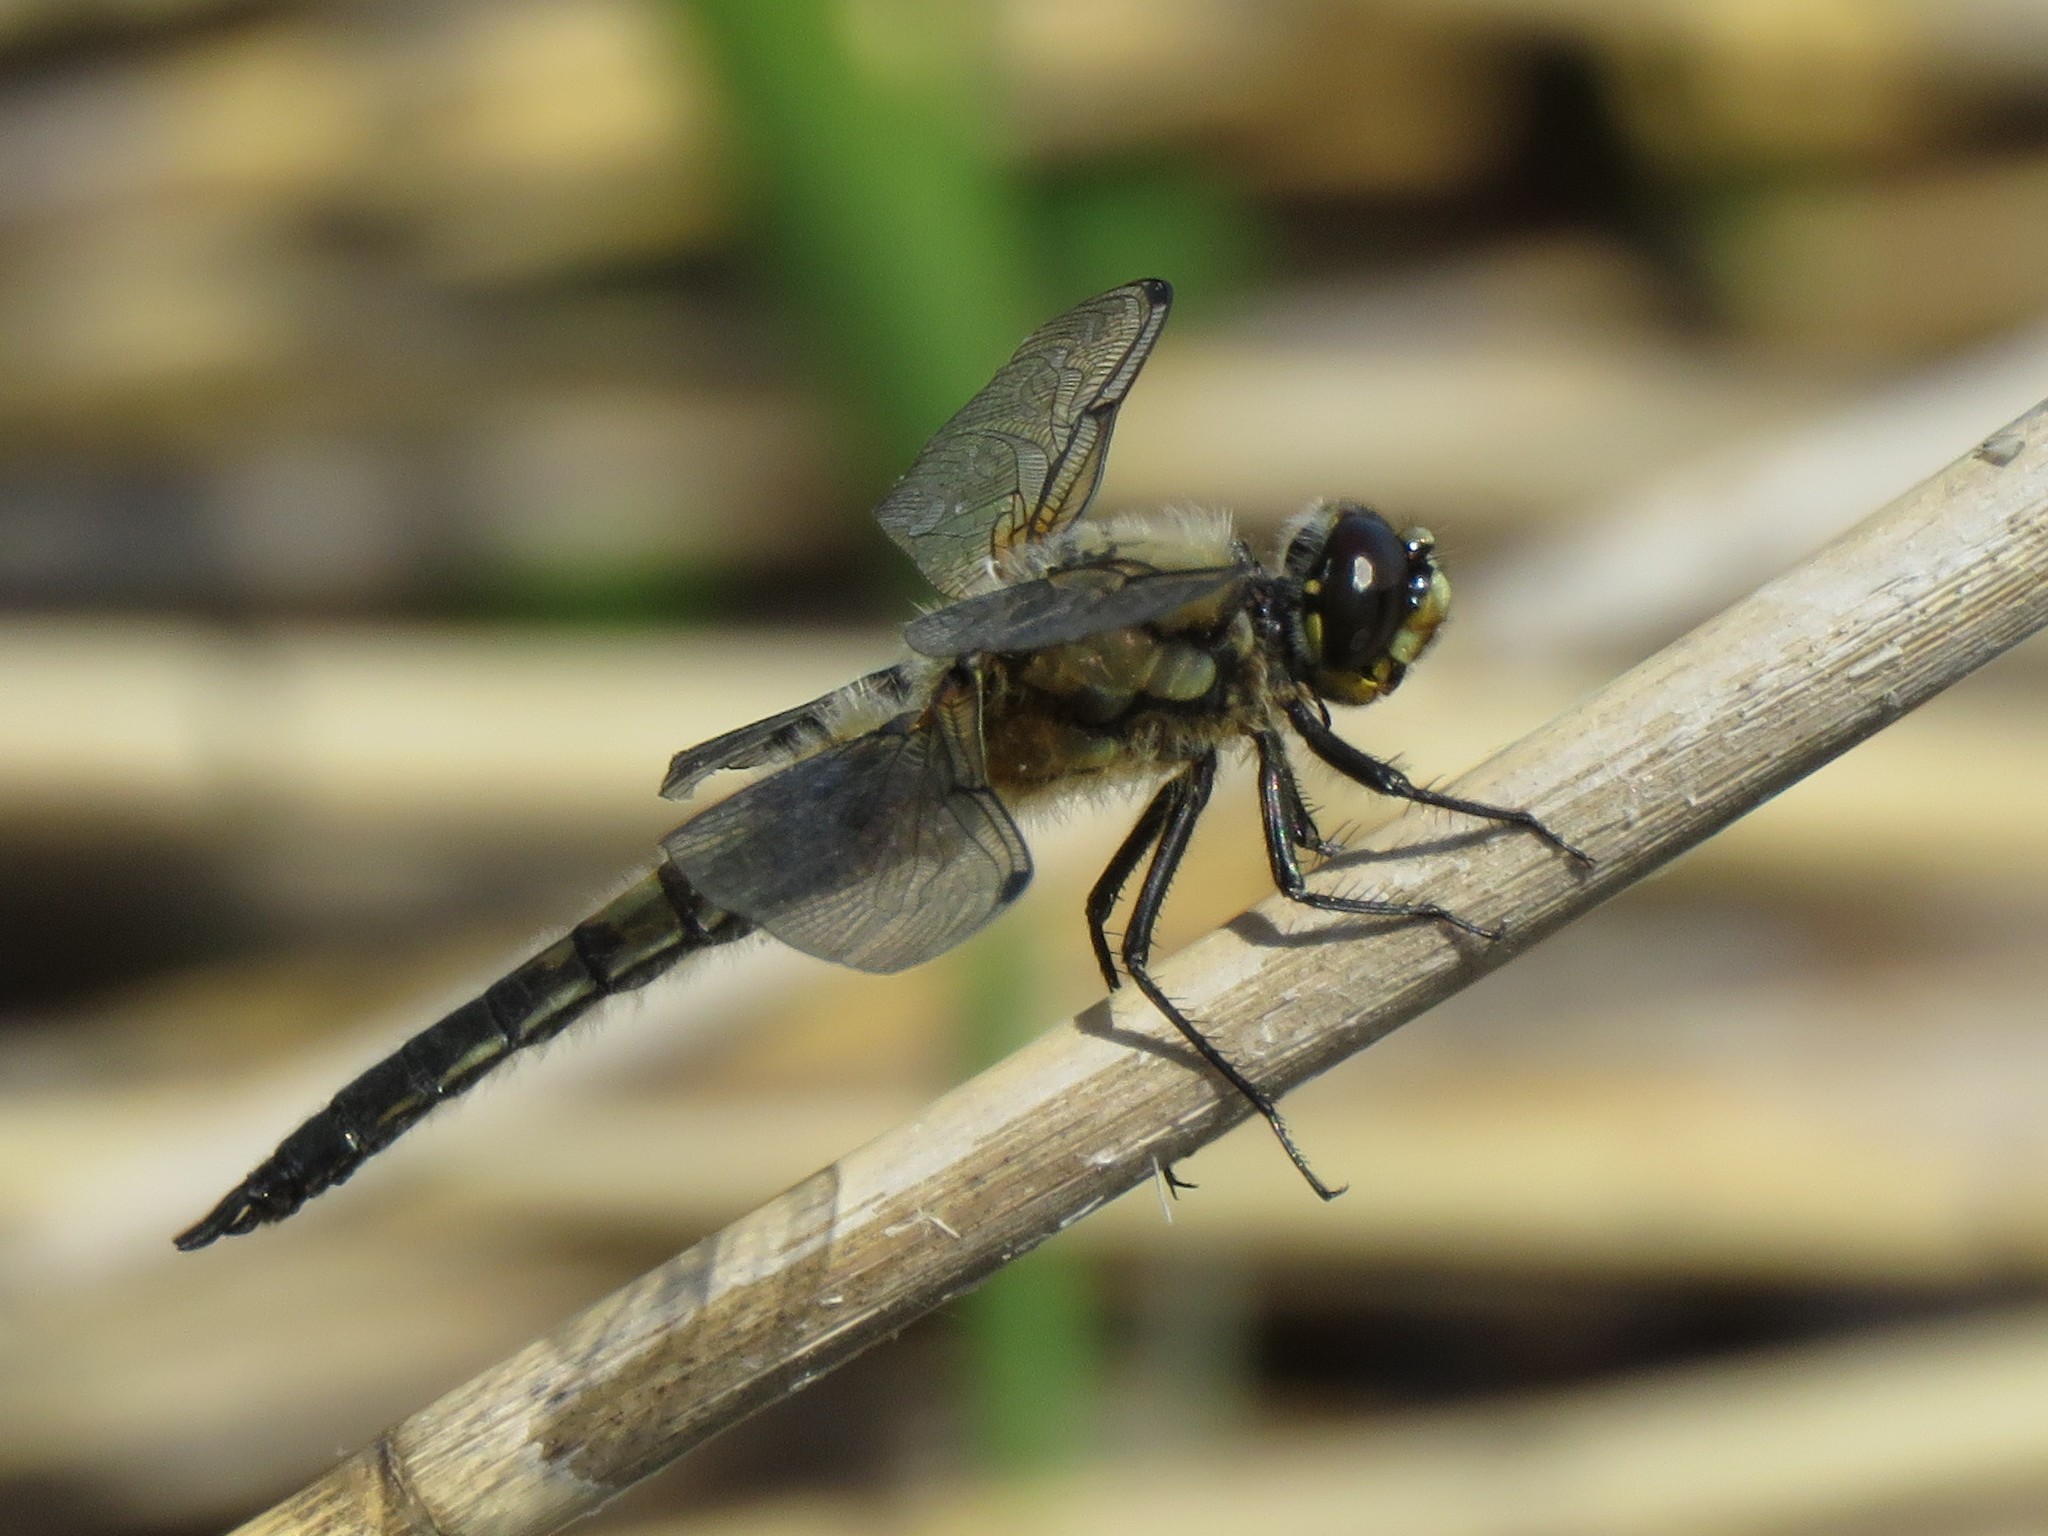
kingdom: Animalia
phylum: Arthropoda
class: Insecta
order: Odonata
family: Libellulidae
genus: Libellula
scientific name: Libellula quadrimaculata
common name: Four-spotted chaser
